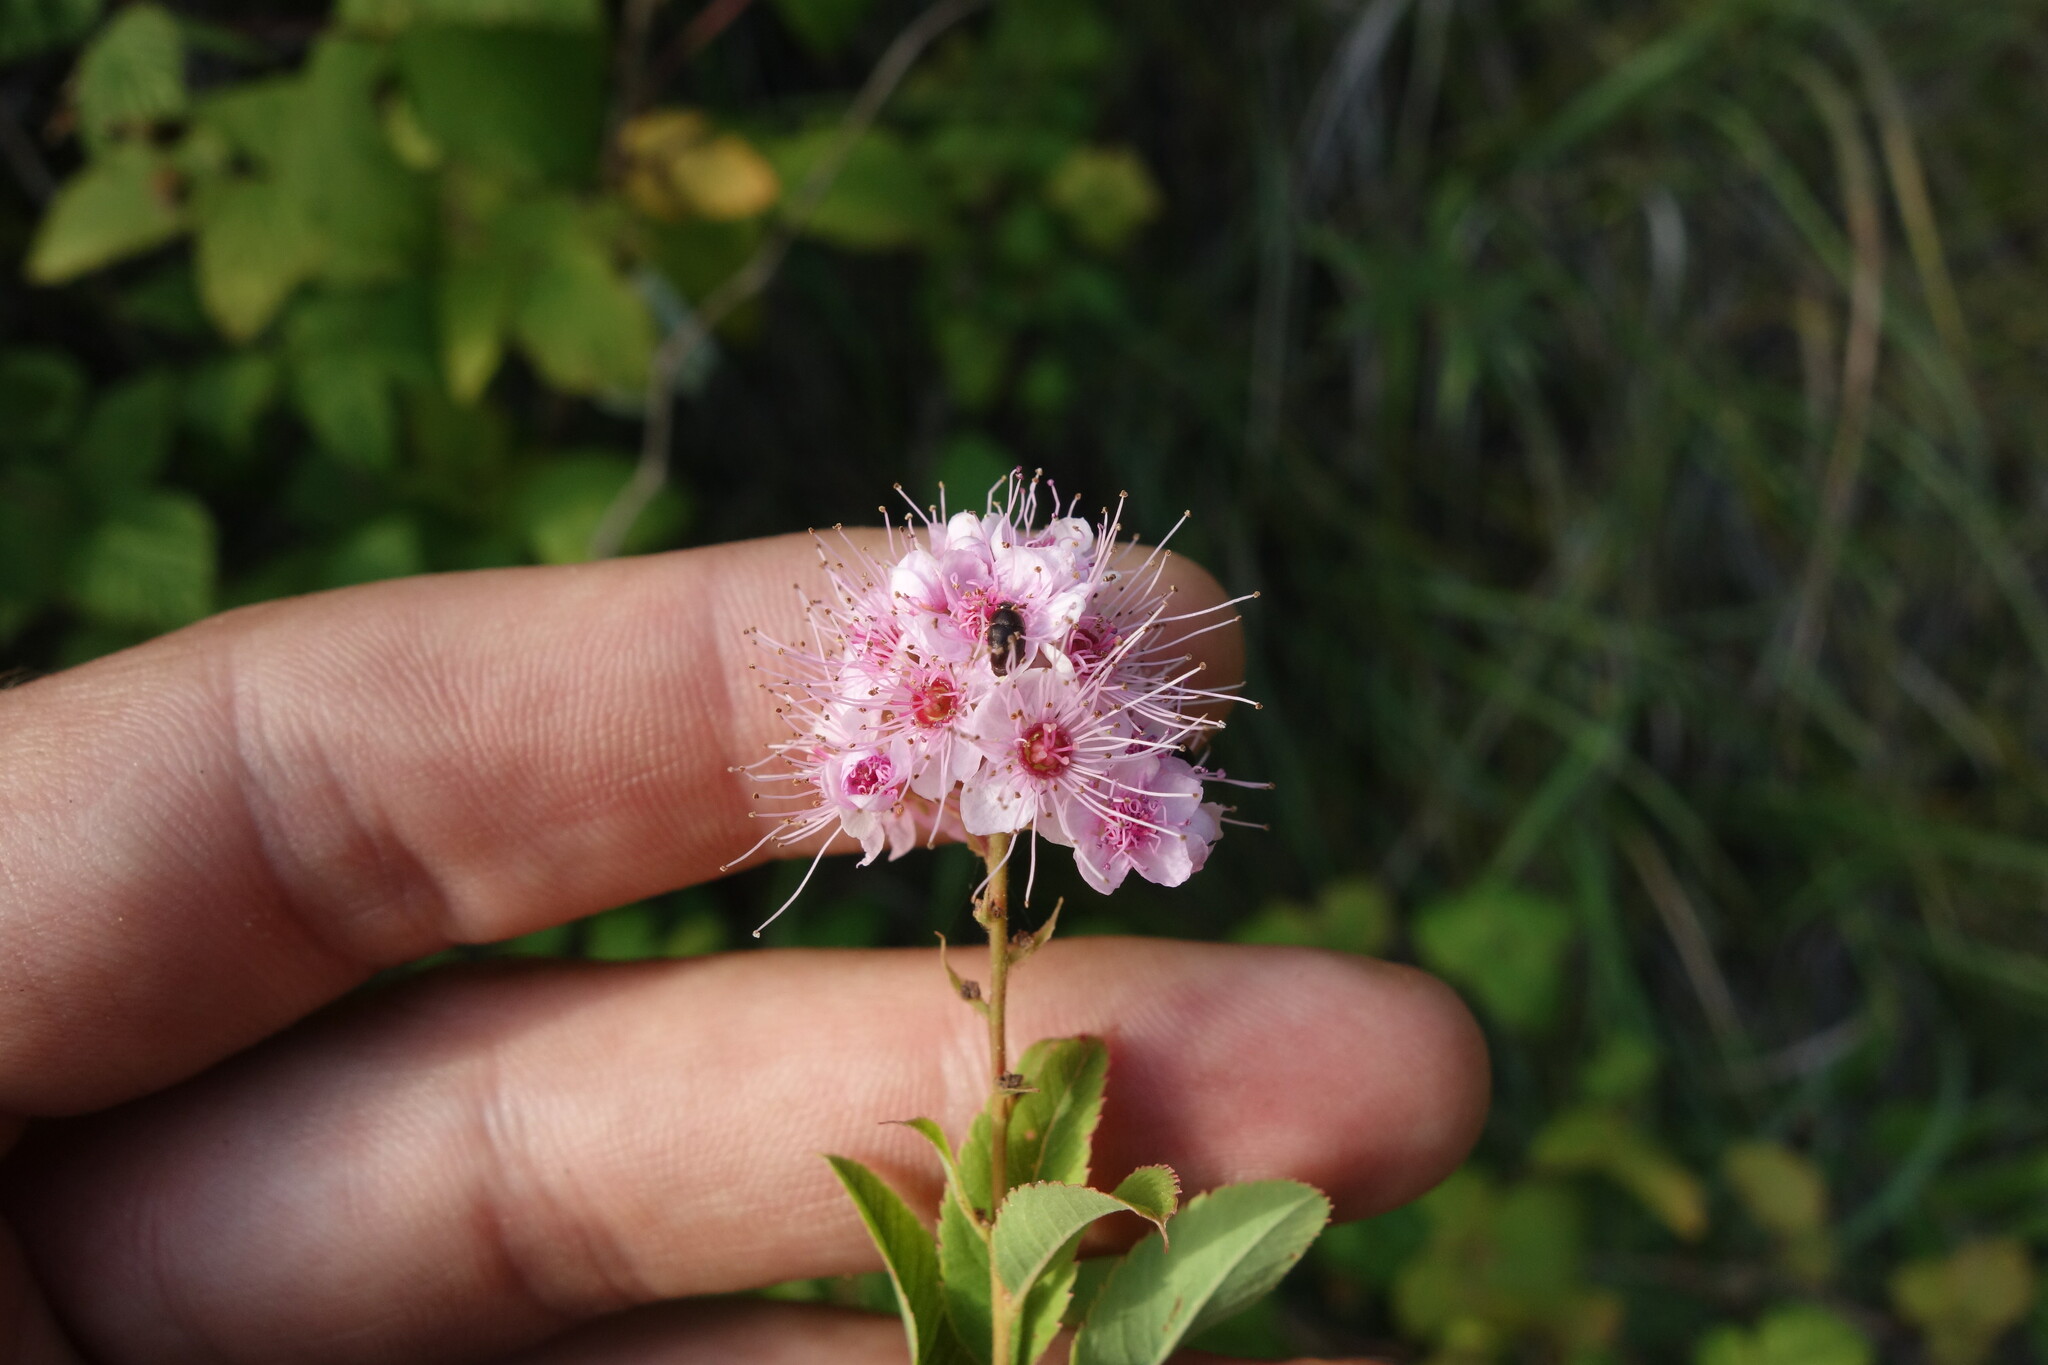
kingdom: Plantae
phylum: Tracheophyta
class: Magnoliopsida
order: Rosales
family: Rosaceae
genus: Spiraea
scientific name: Spiraea salicifolia
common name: Bridewort
